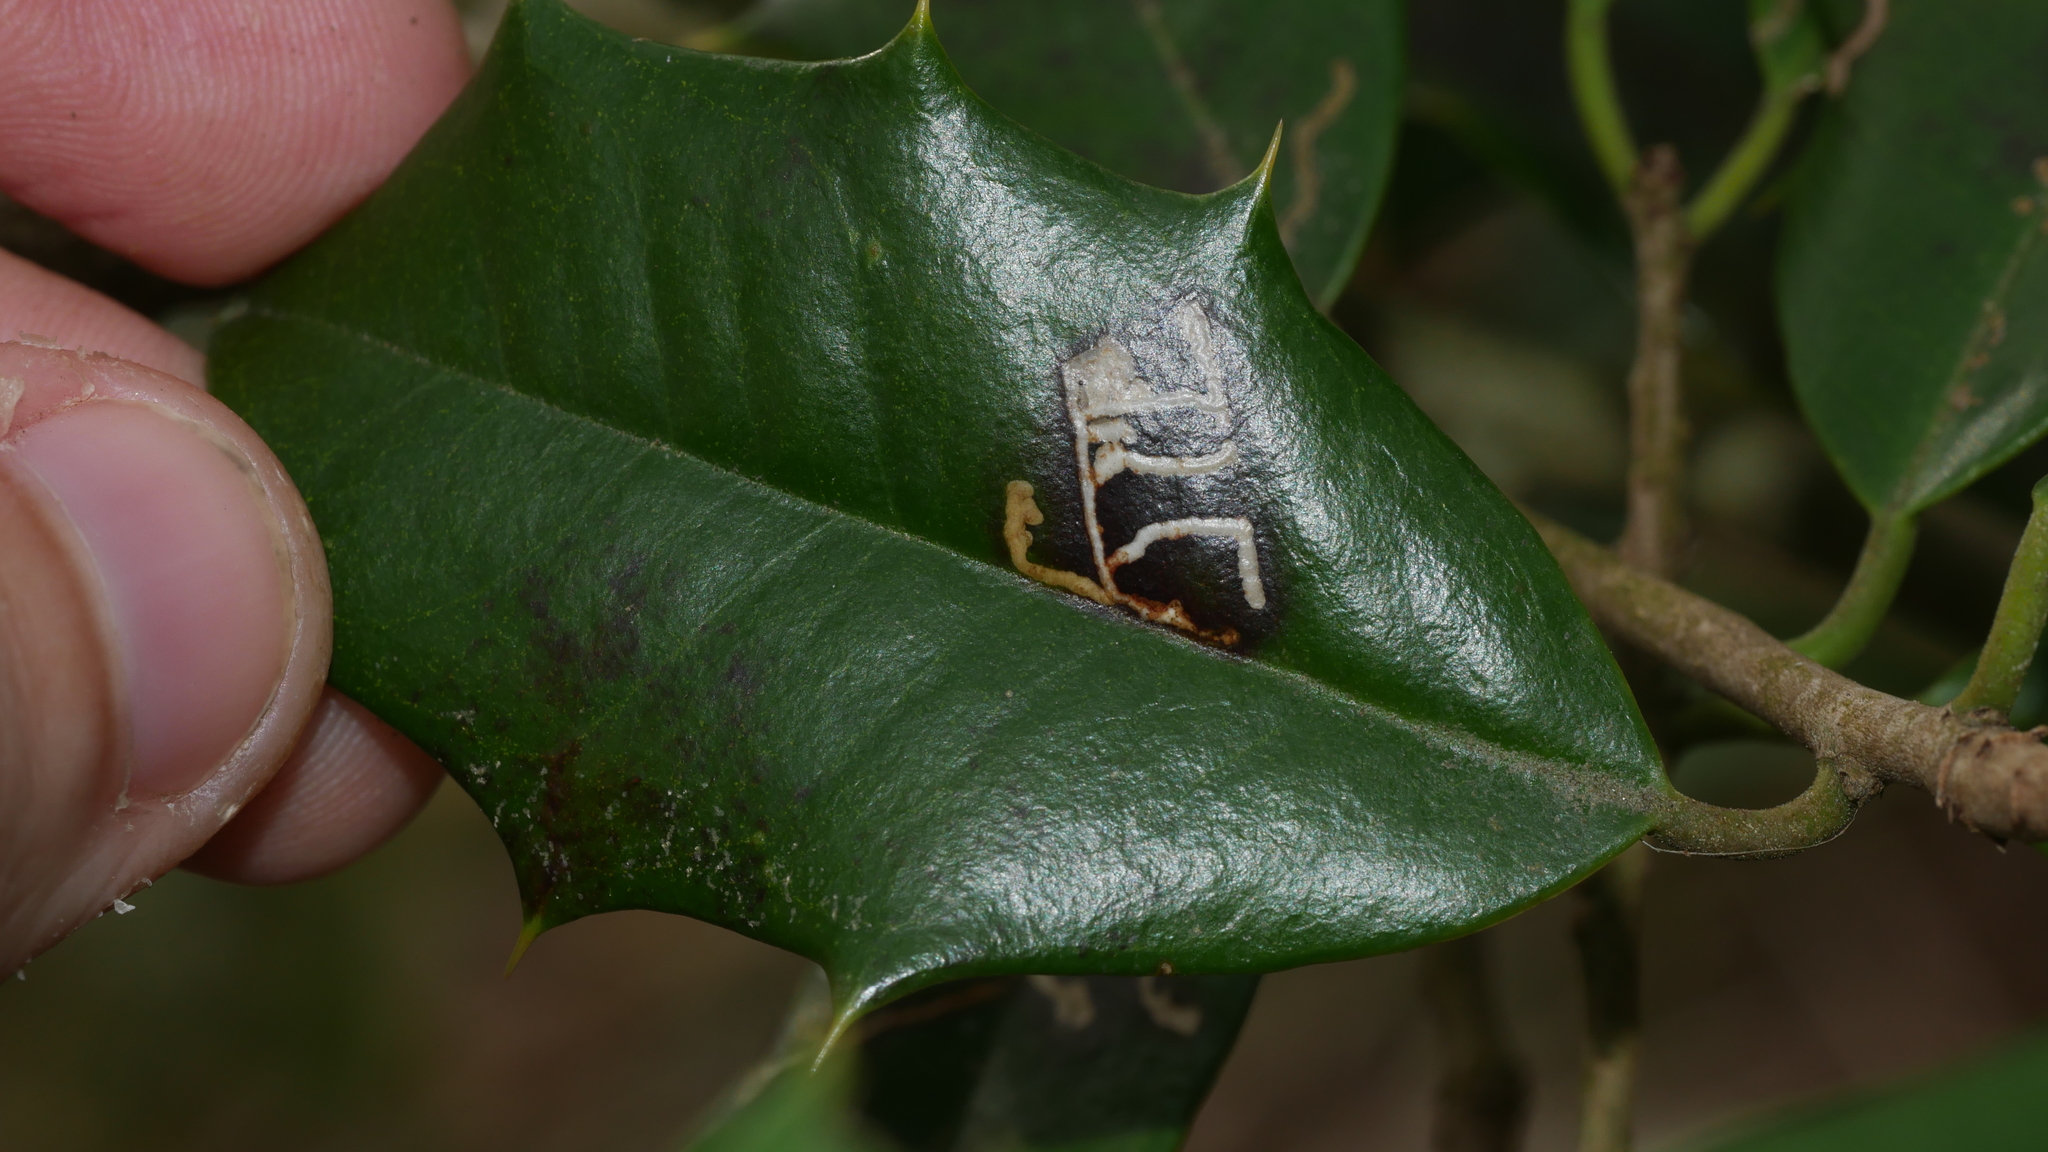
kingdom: Animalia
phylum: Arthropoda
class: Insecta
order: Lepidoptera
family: Tortricidae
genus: Rhopobota
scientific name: Rhopobota
